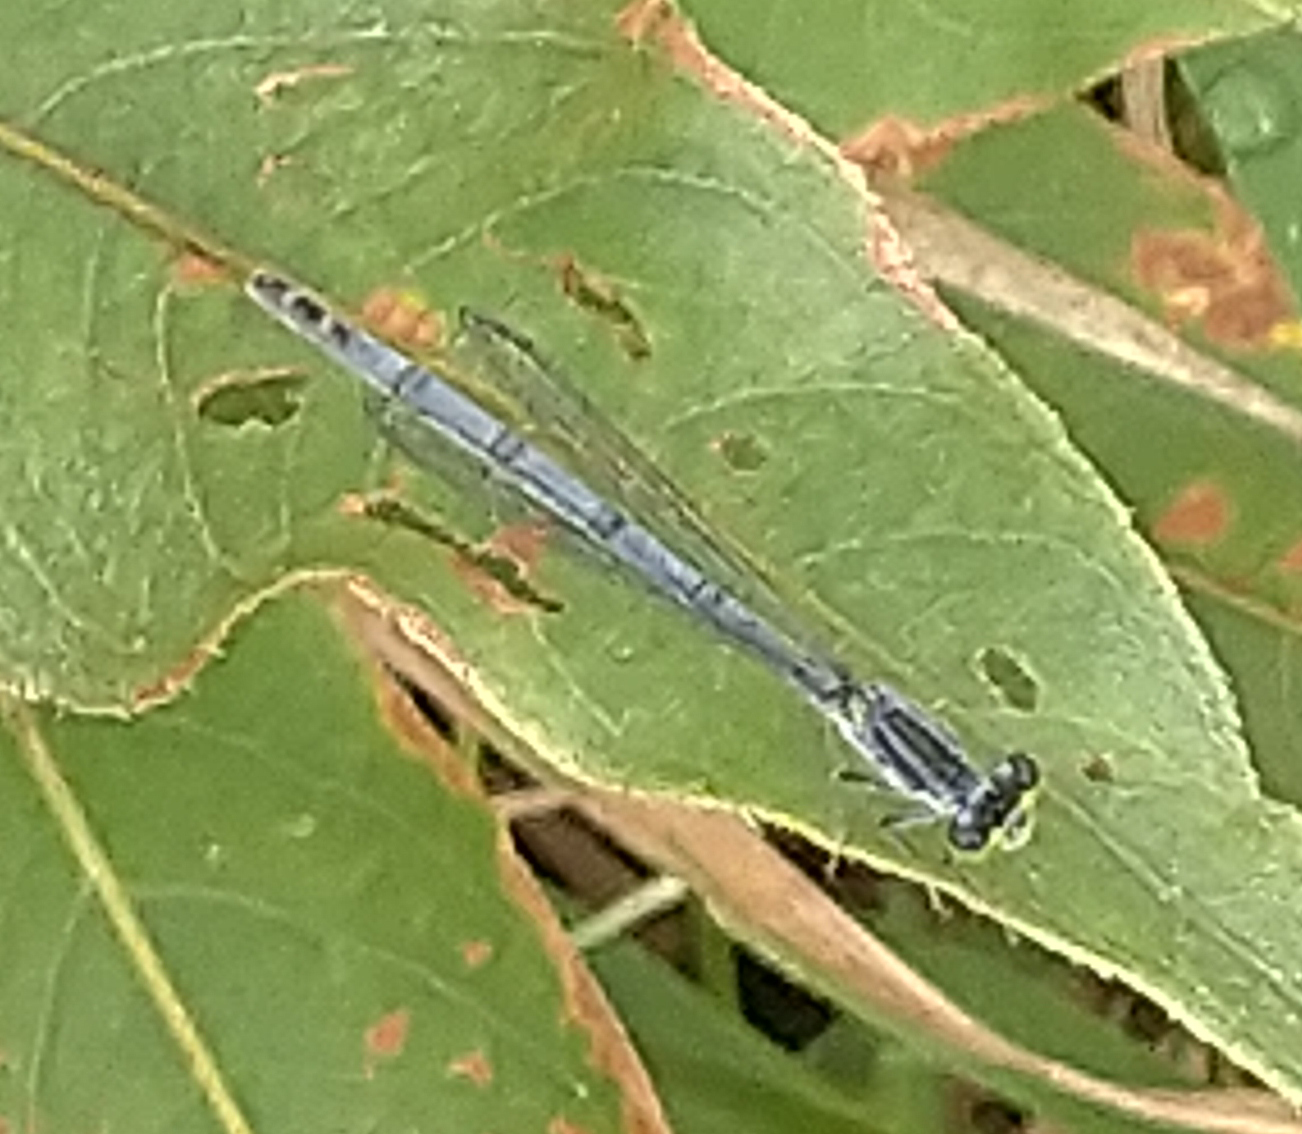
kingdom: Animalia
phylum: Arthropoda
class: Insecta
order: Odonata
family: Coenagrionidae
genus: Ischnura
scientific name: Ischnura verticalis
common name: Eastern forktail
